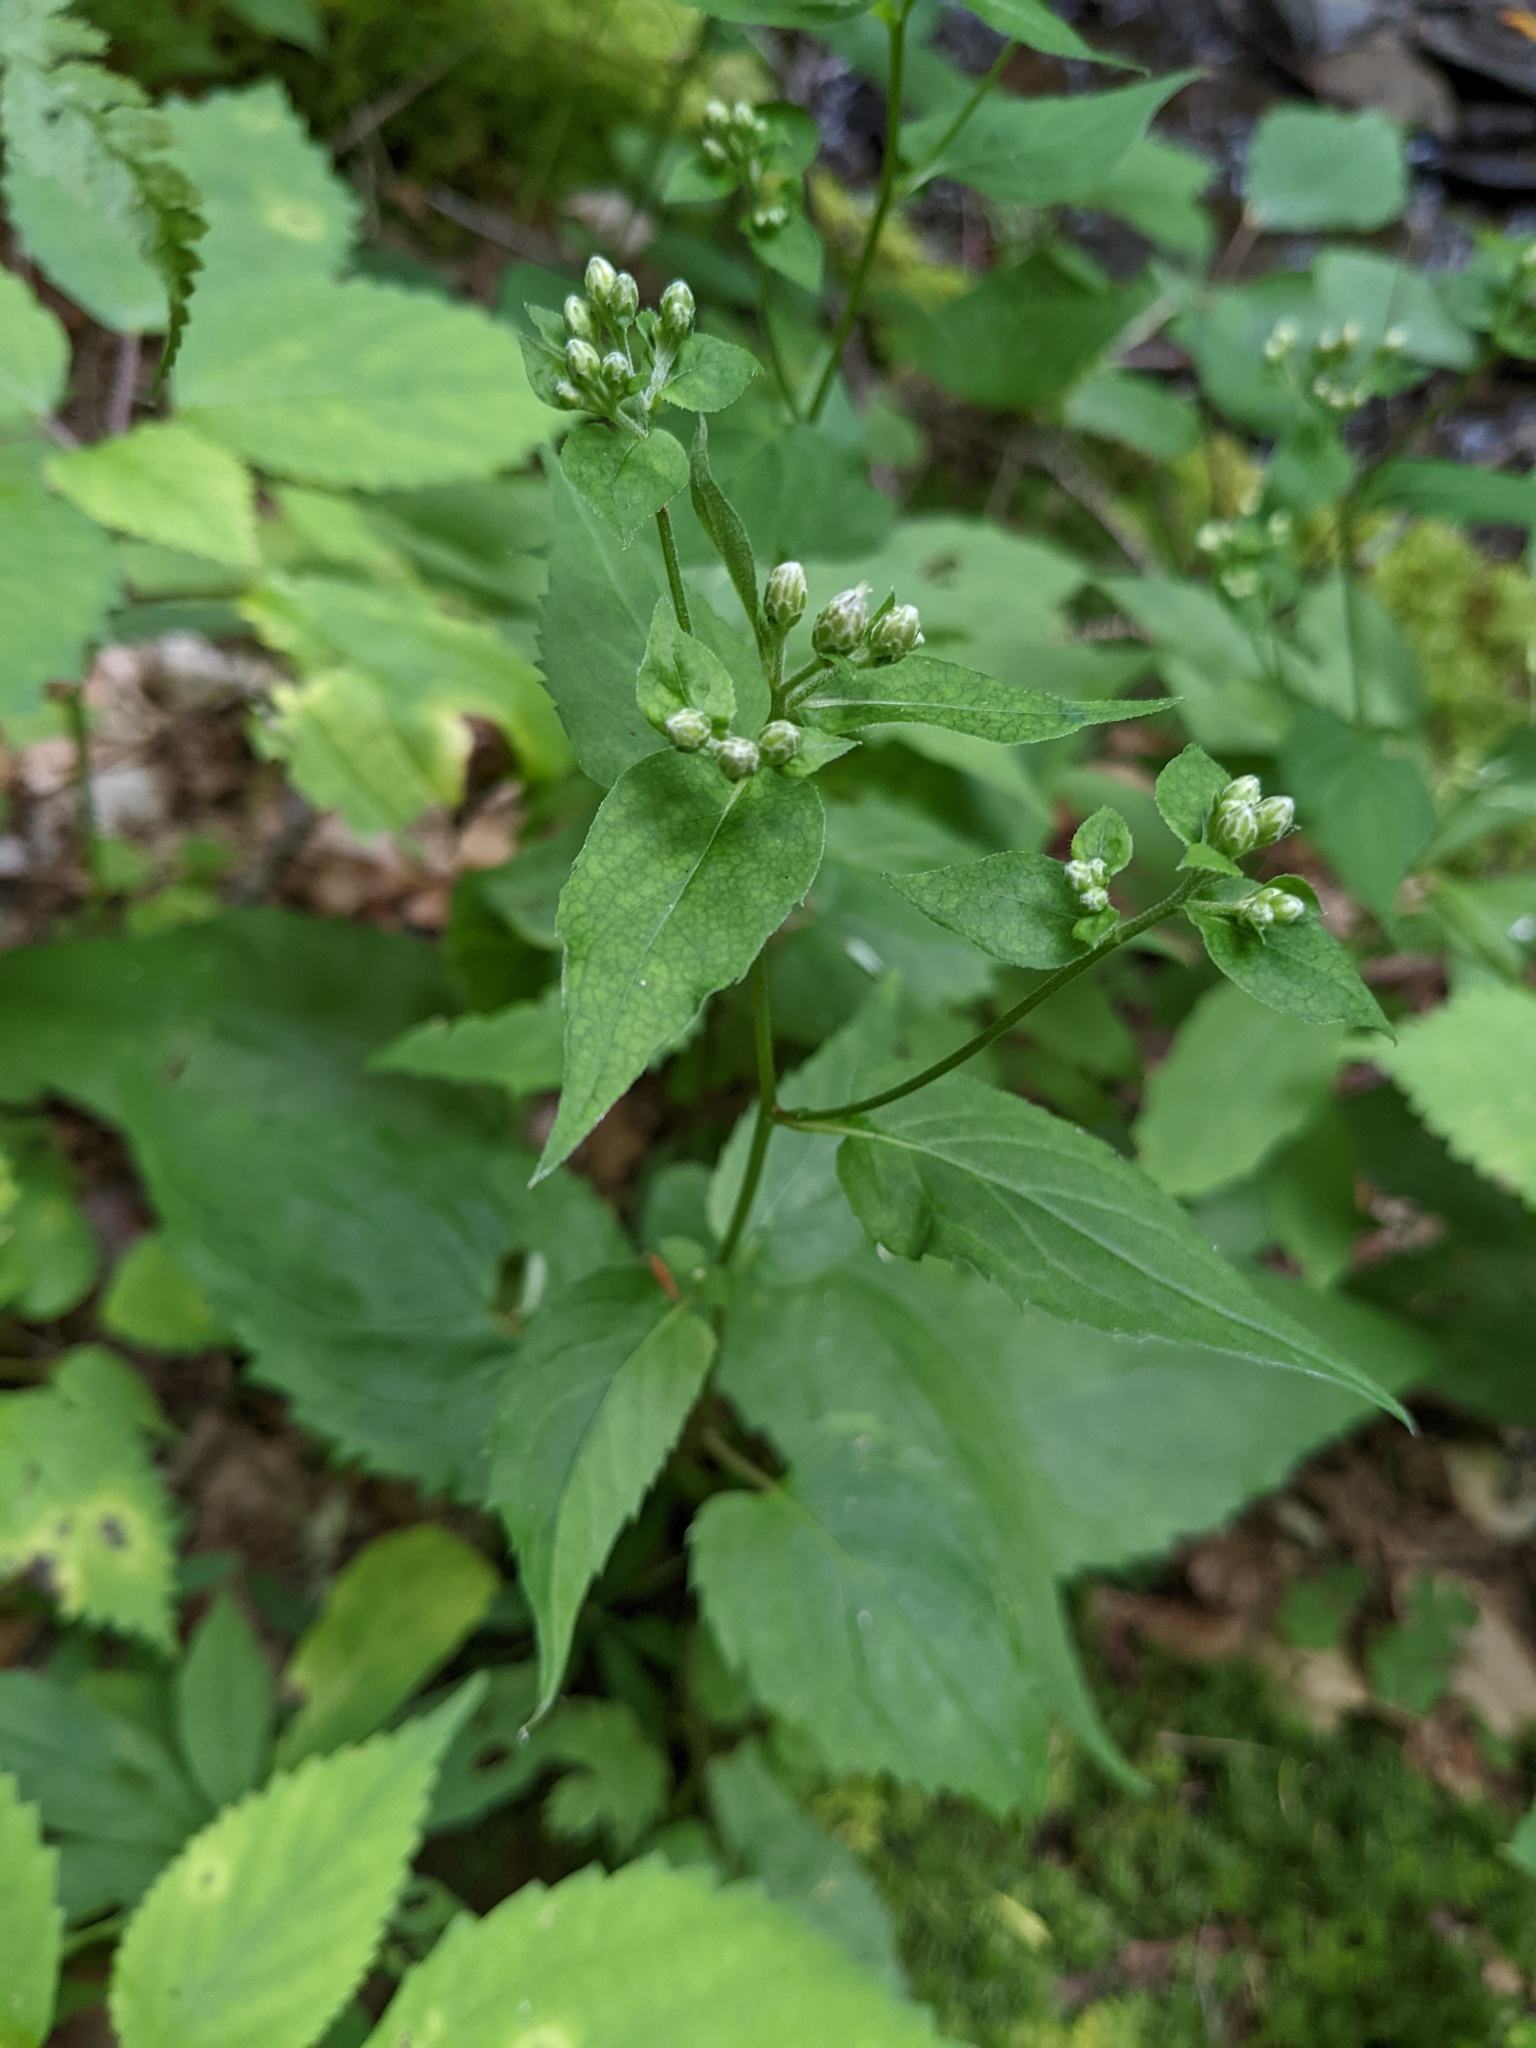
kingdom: Plantae
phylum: Tracheophyta
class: Magnoliopsida
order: Asterales
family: Asteraceae
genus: Eurybia
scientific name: Eurybia divaricata
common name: White wood aster
